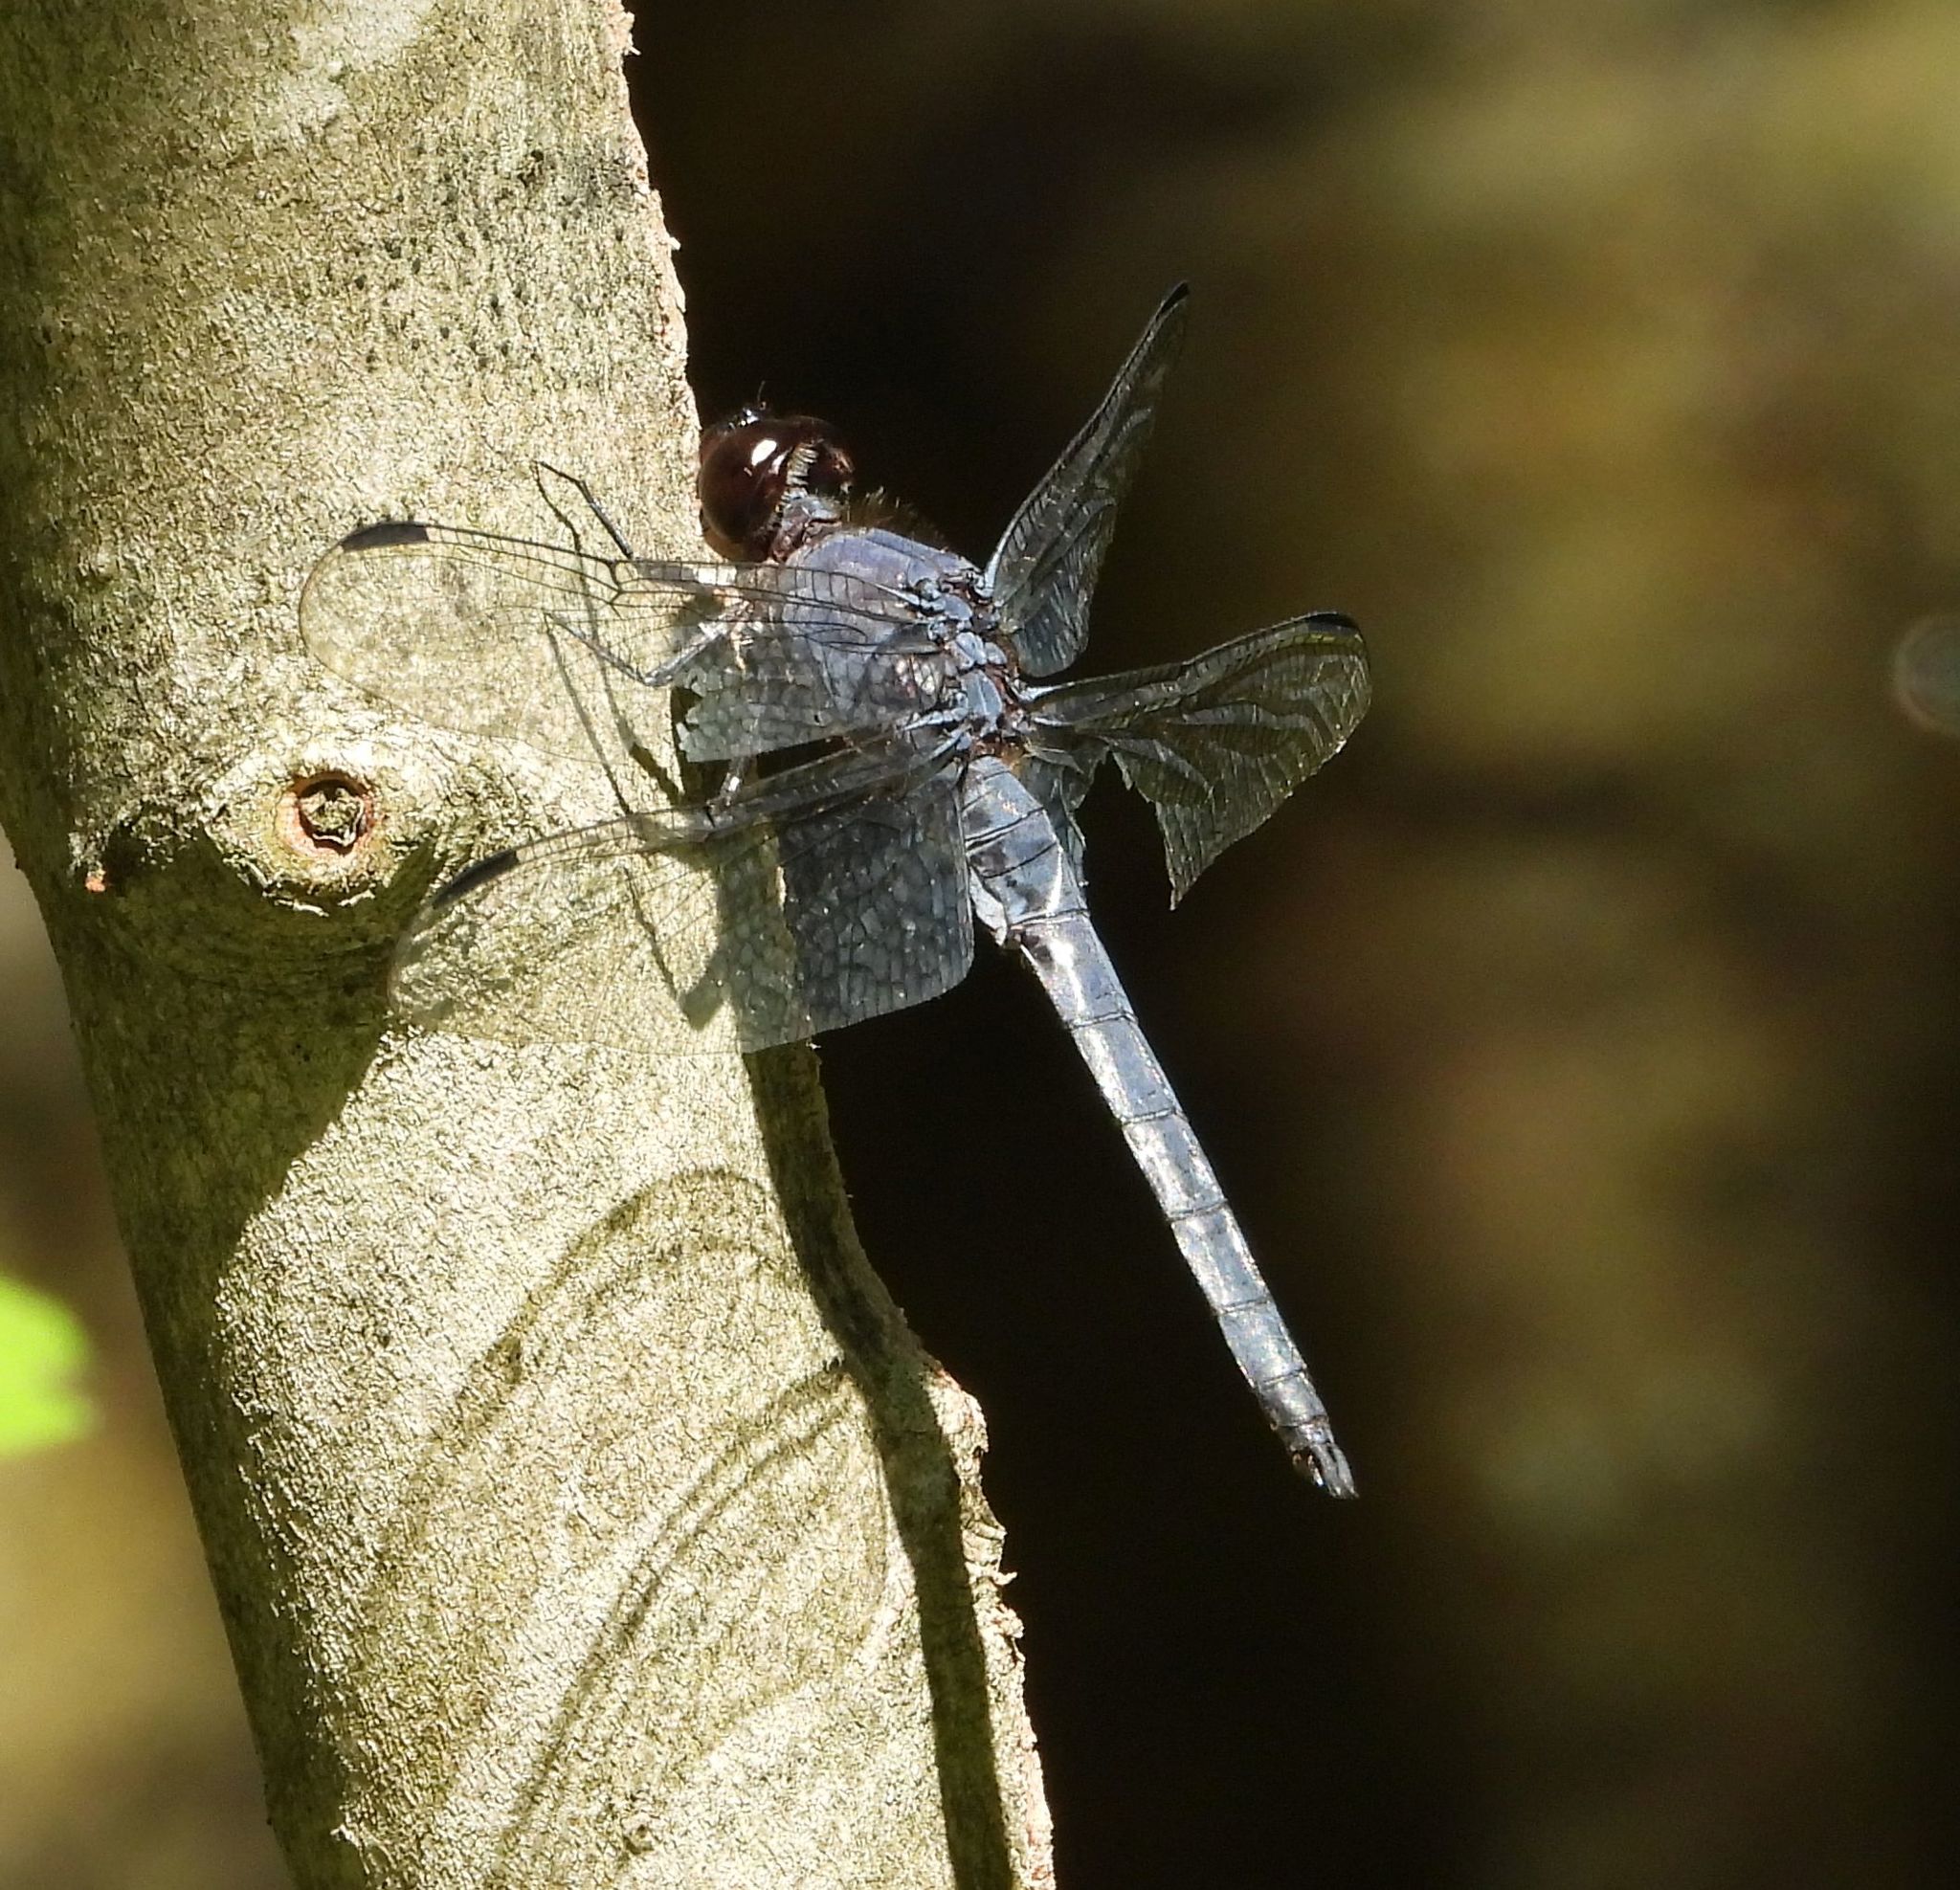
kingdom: Animalia
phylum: Arthropoda
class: Insecta
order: Odonata
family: Libellulidae
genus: Libellula
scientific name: Libellula incesta
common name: Slaty skimmer
